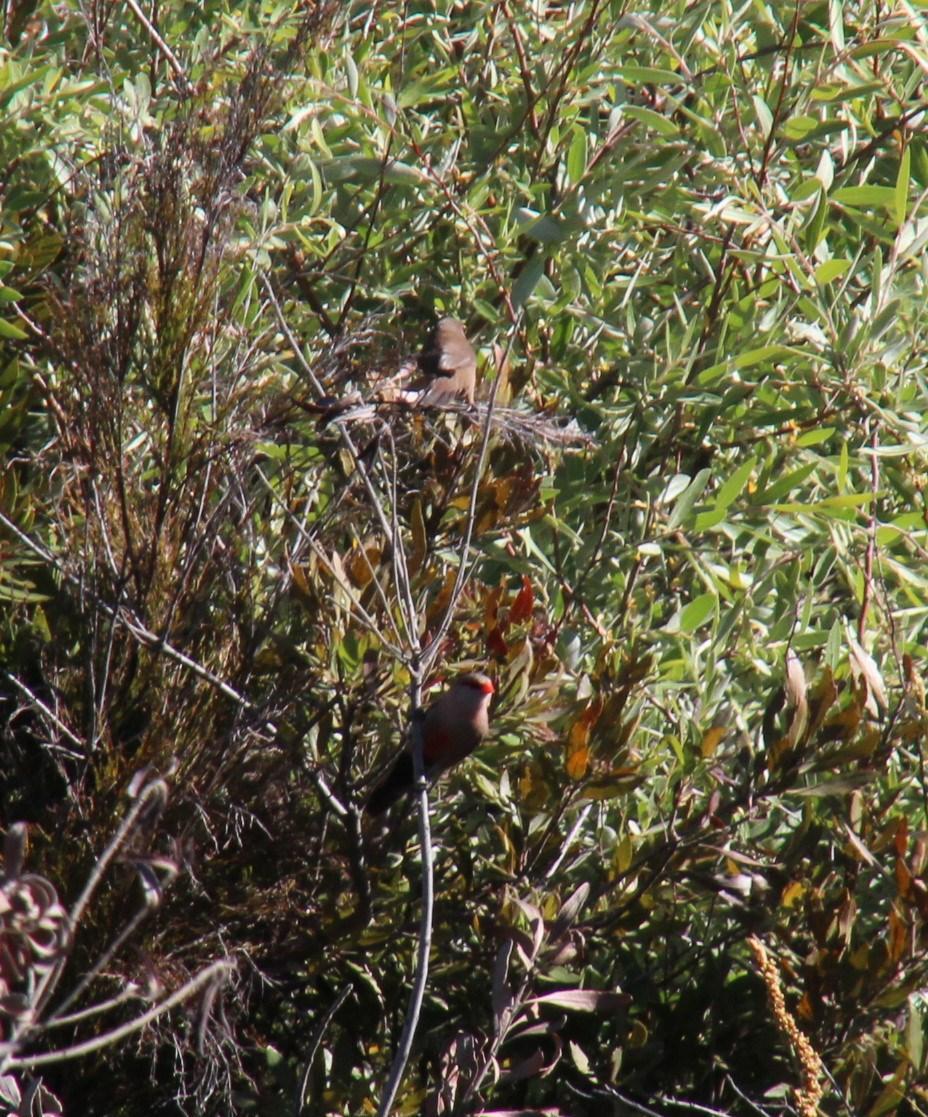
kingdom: Animalia
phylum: Chordata
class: Aves
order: Passeriformes
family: Estrildidae
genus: Estrilda
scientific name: Estrilda astrild
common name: Common waxbill
